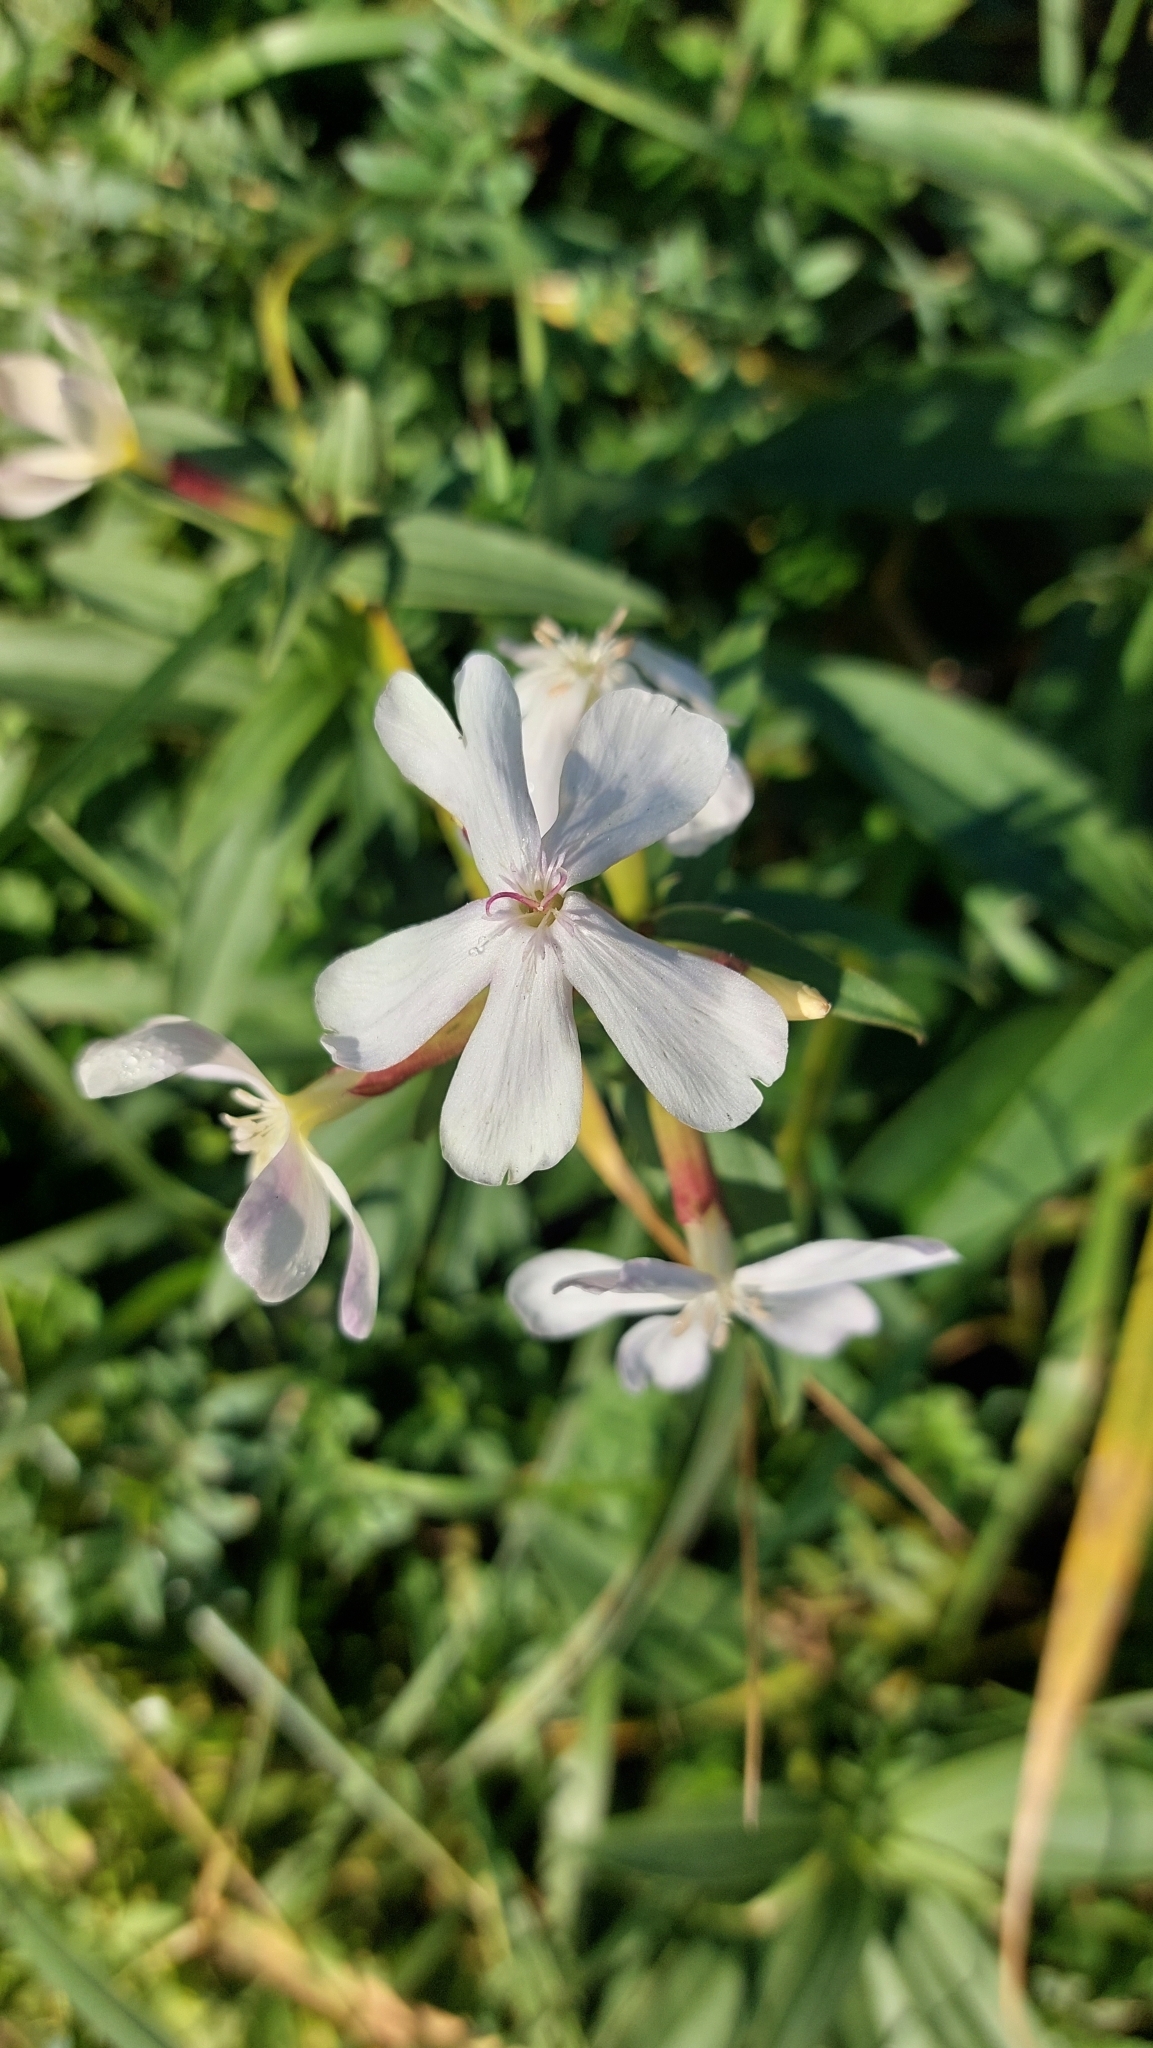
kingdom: Plantae
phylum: Tracheophyta
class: Magnoliopsida
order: Caryophyllales
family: Caryophyllaceae
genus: Saponaria
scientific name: Saponaria officinalis
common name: Soapwort
